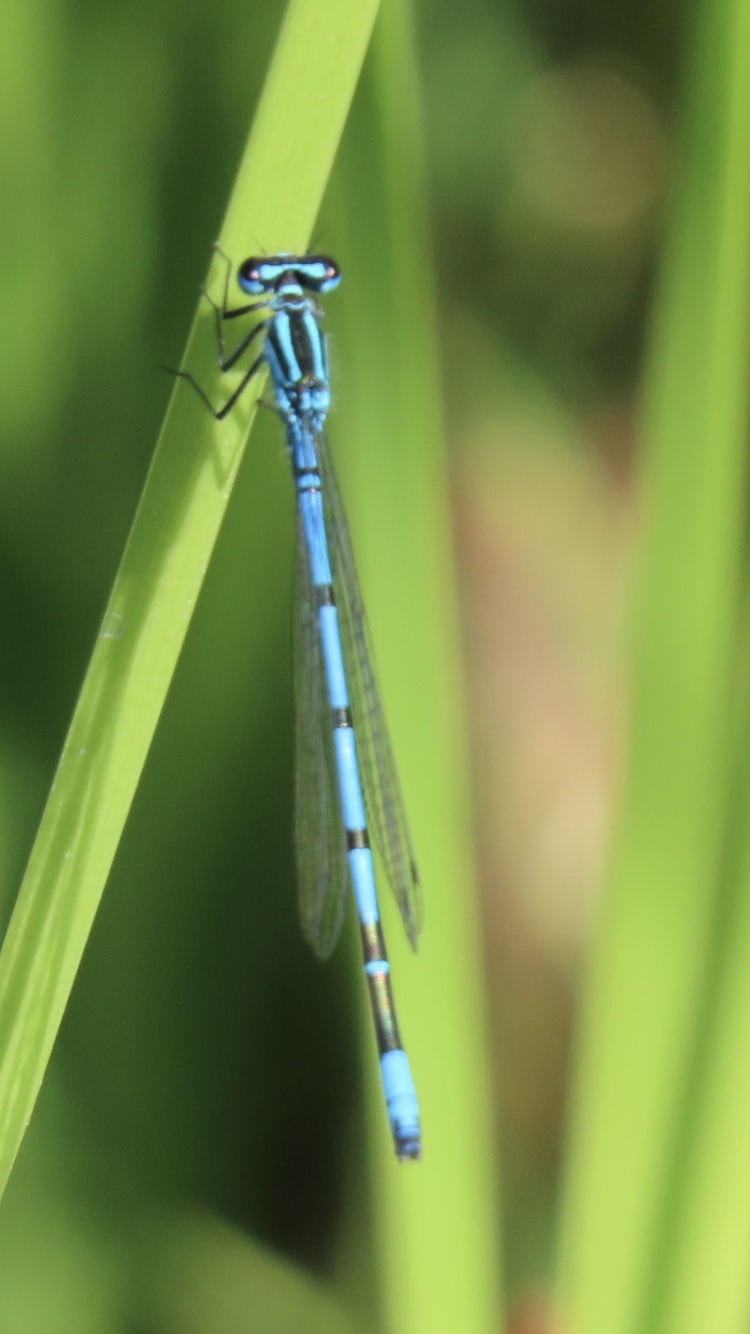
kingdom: Animalia
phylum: Arthropoda
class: Insecta
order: Odonata
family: Coenagrionidae
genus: Coenagrion
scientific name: Coenagrion puella
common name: Azure damselfly
